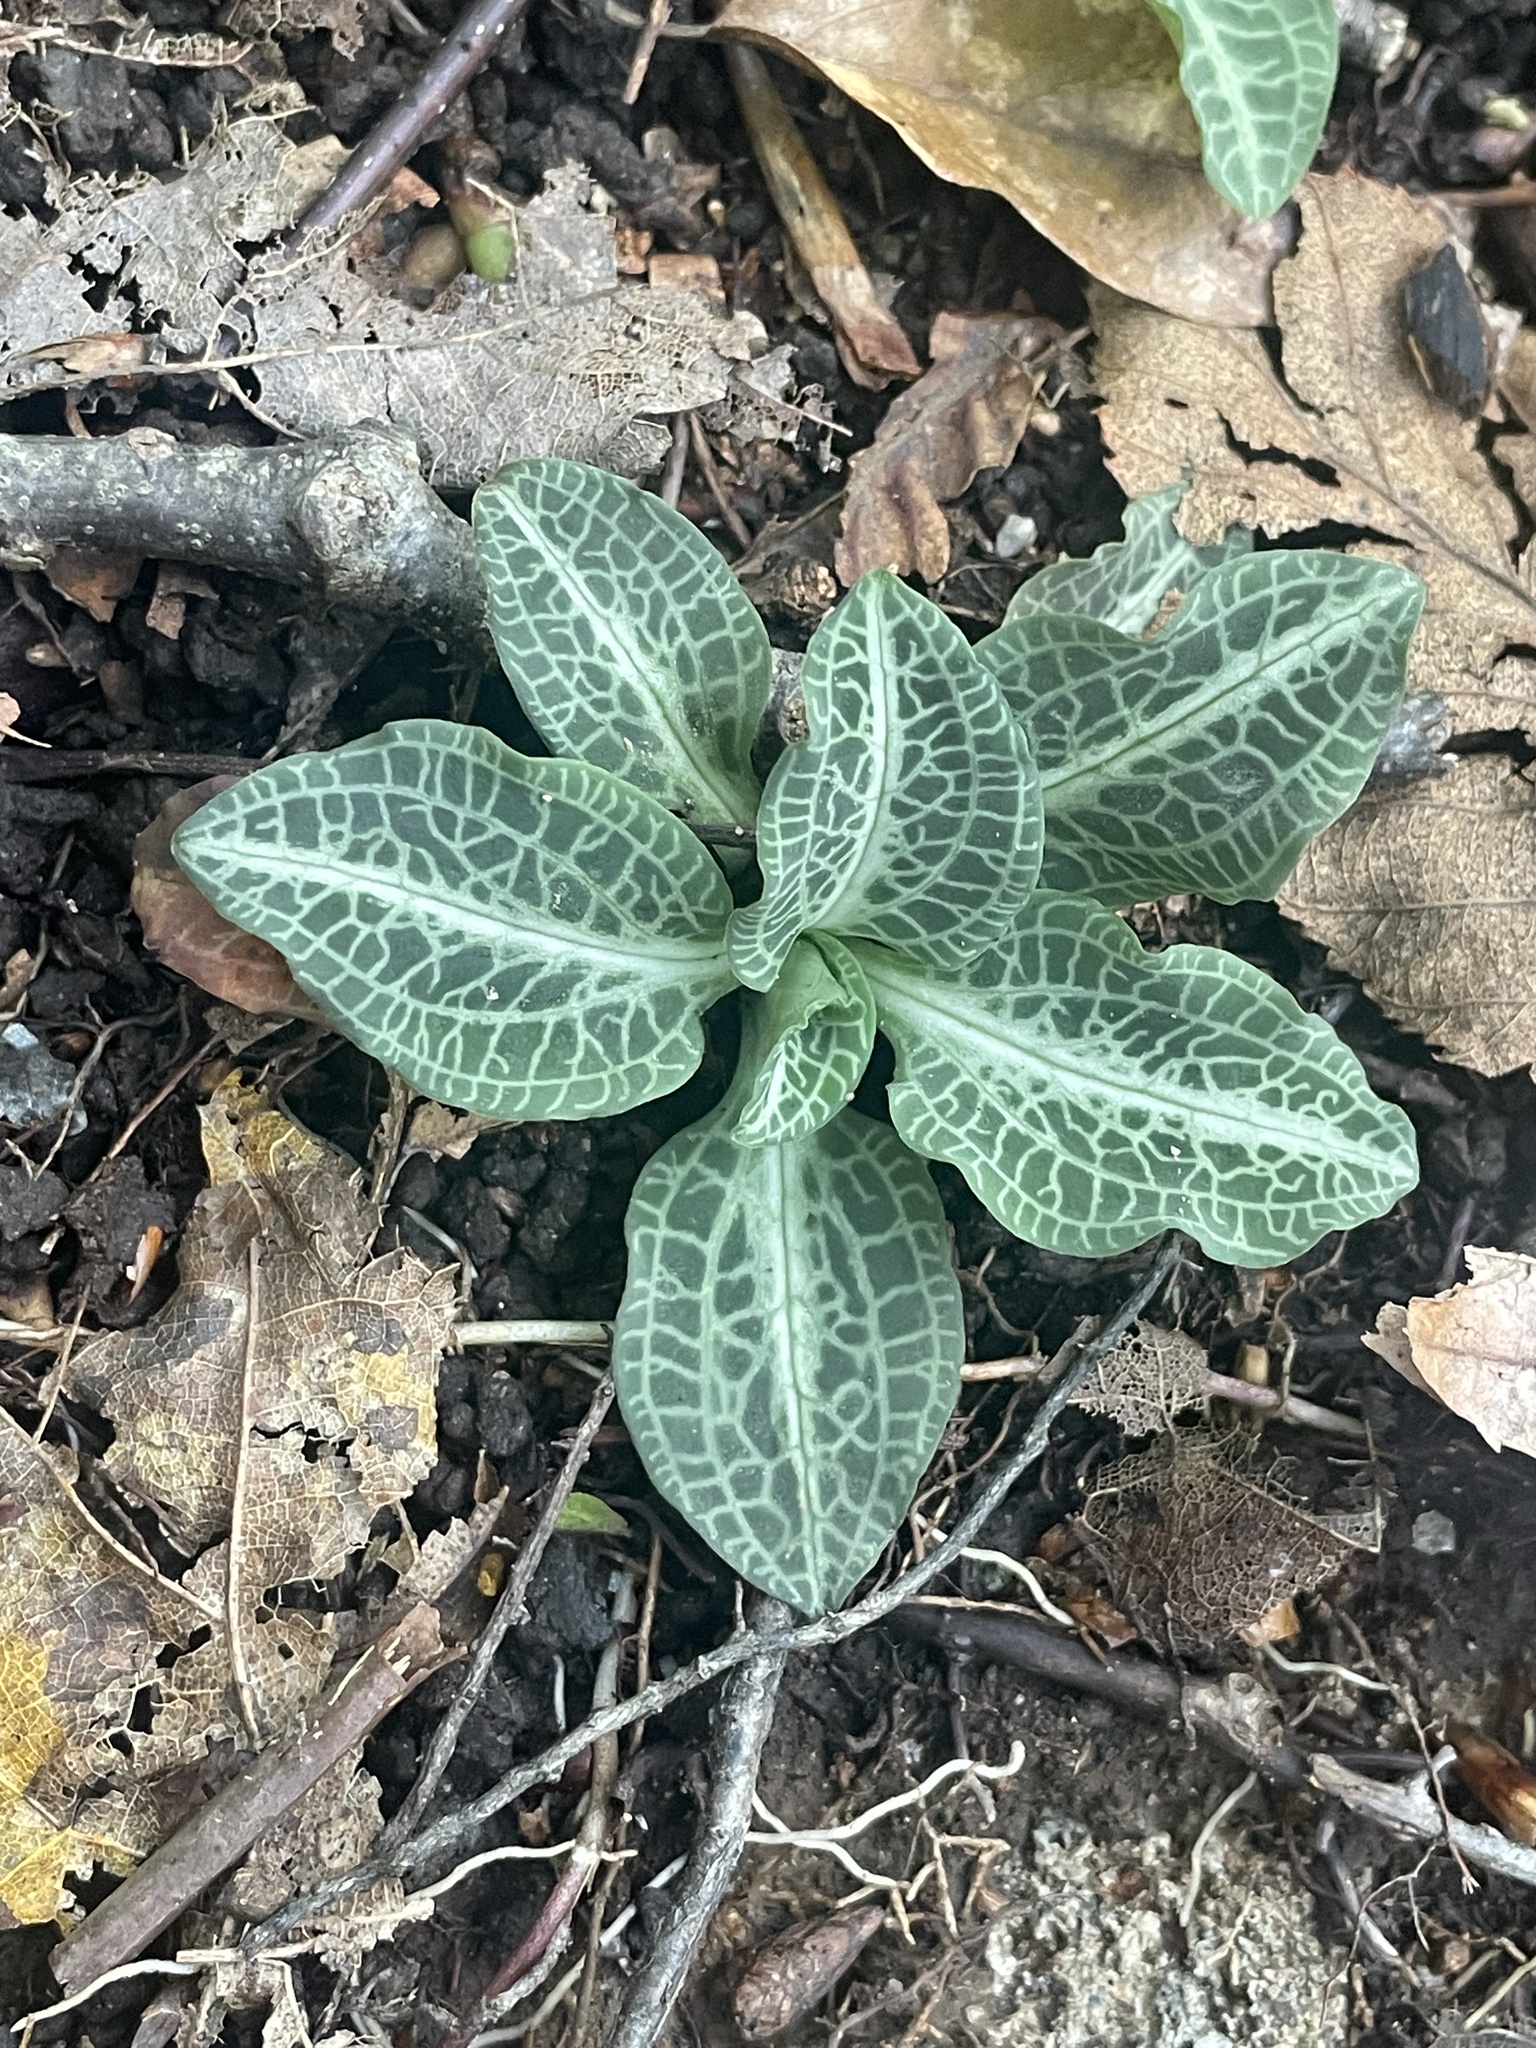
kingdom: Plantae
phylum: Tracheophyta
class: Liliopsida
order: Asparagales
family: Orchidaceae
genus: Goodyera
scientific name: Goodyera pubescens
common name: Downy rattlesnake-plantain
